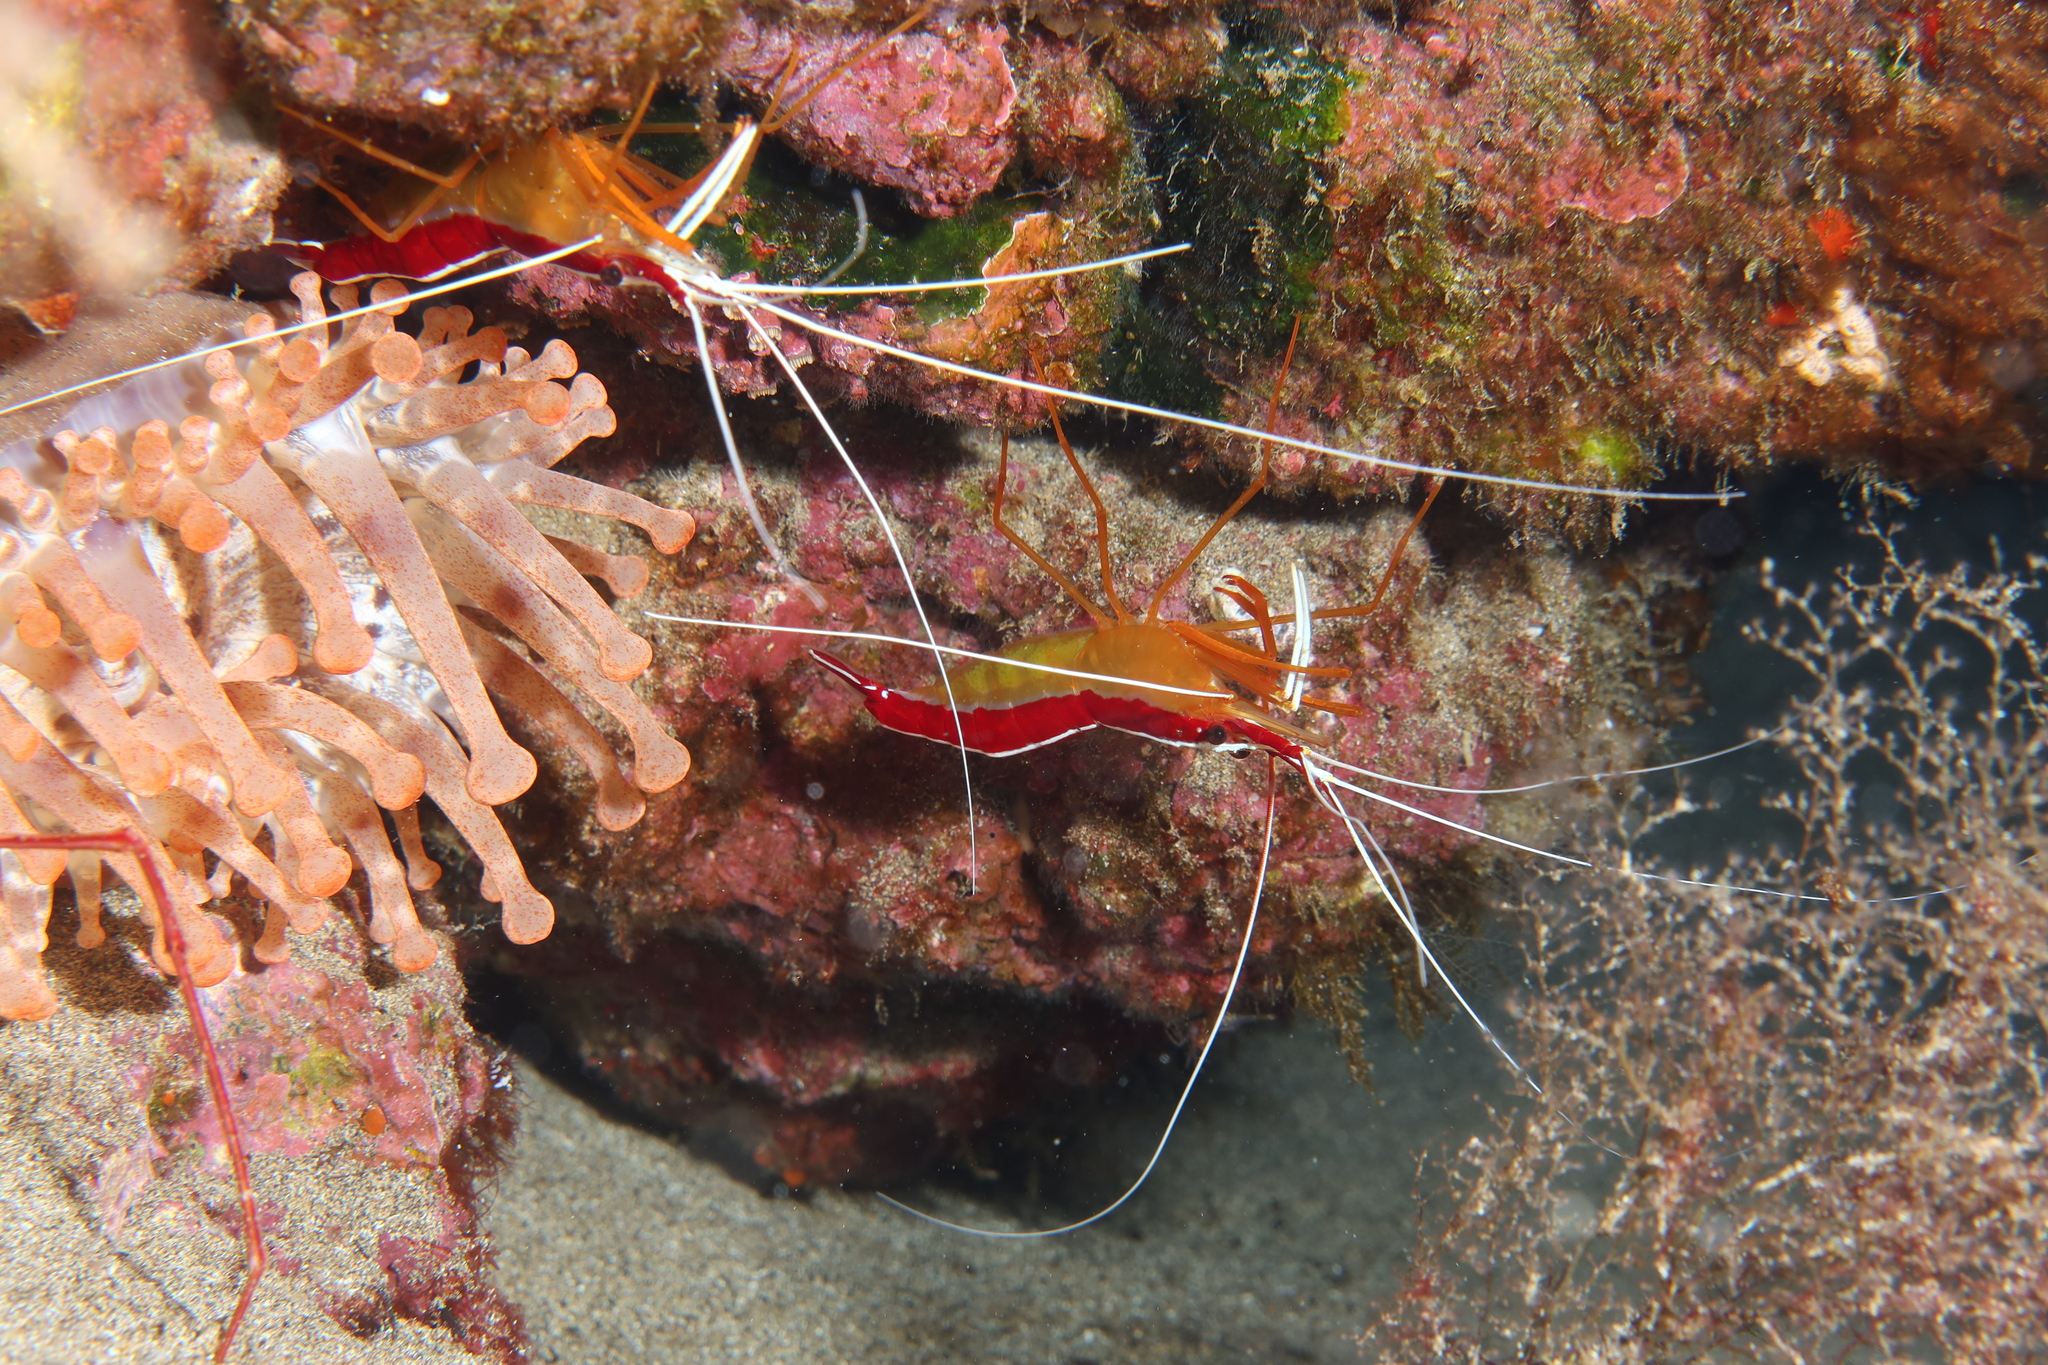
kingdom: Animalia
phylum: Arthropoda
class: Malacostraca
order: Decapoda
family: Lysmatidae
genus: Lysmata
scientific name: Lysmata grabhami
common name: Scarlet-striped cleaning shrimp
